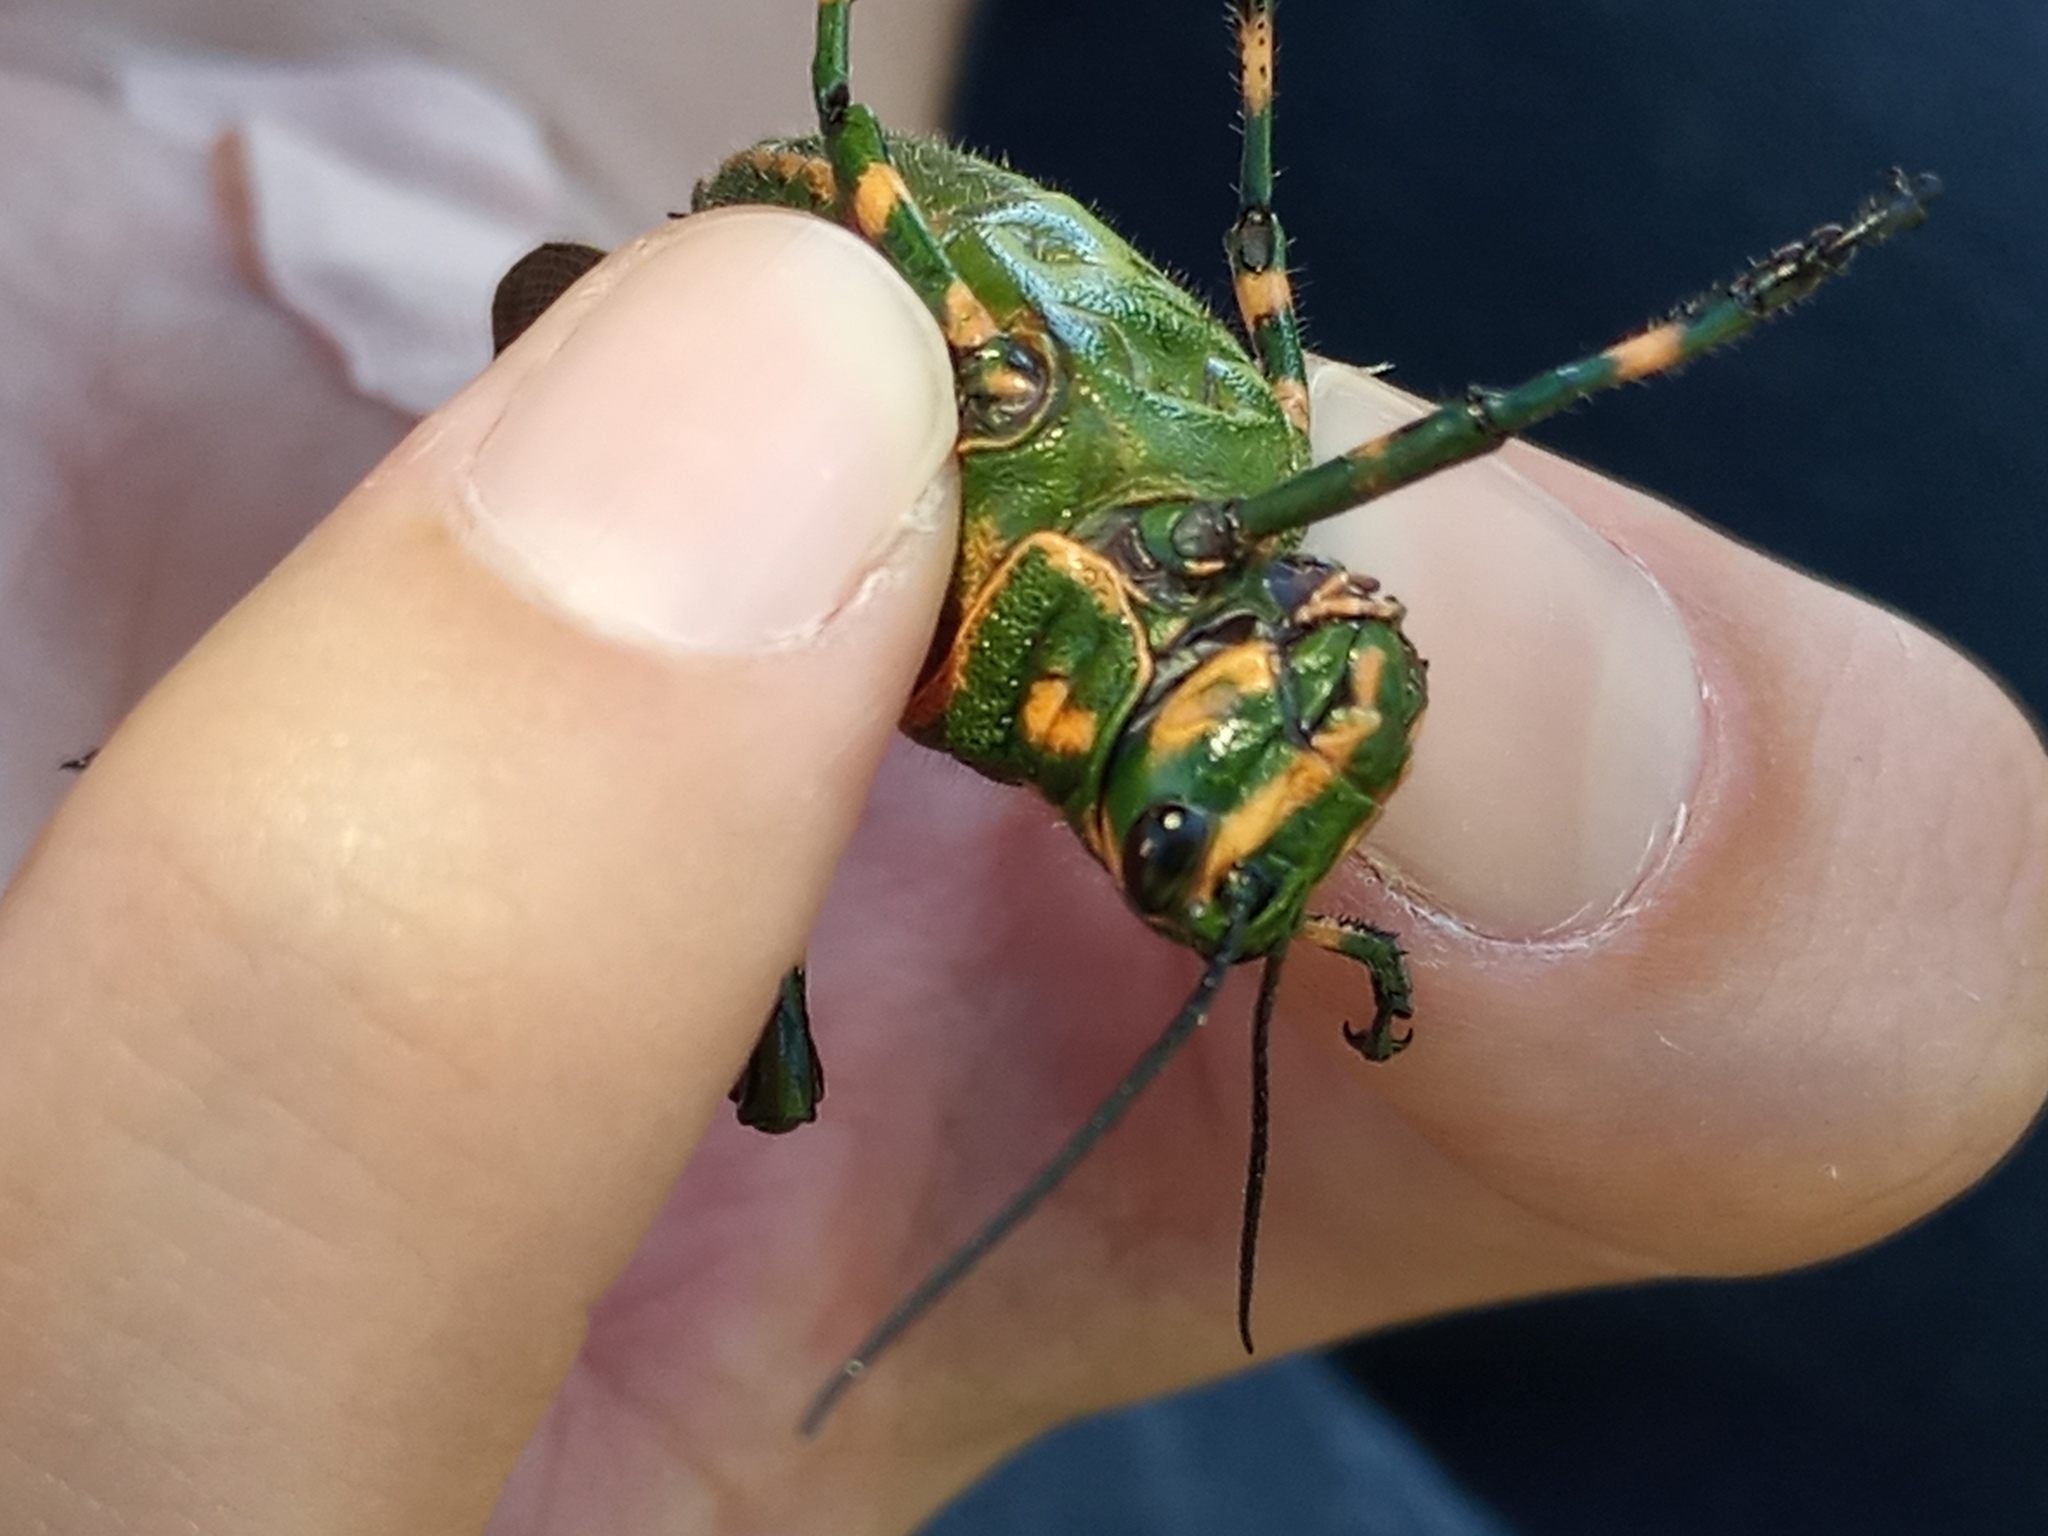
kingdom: Animalia
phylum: Arthropoda
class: Insecta
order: Orthoptera
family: Romaleidae
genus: Chromacris
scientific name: Chromacris speciosa
